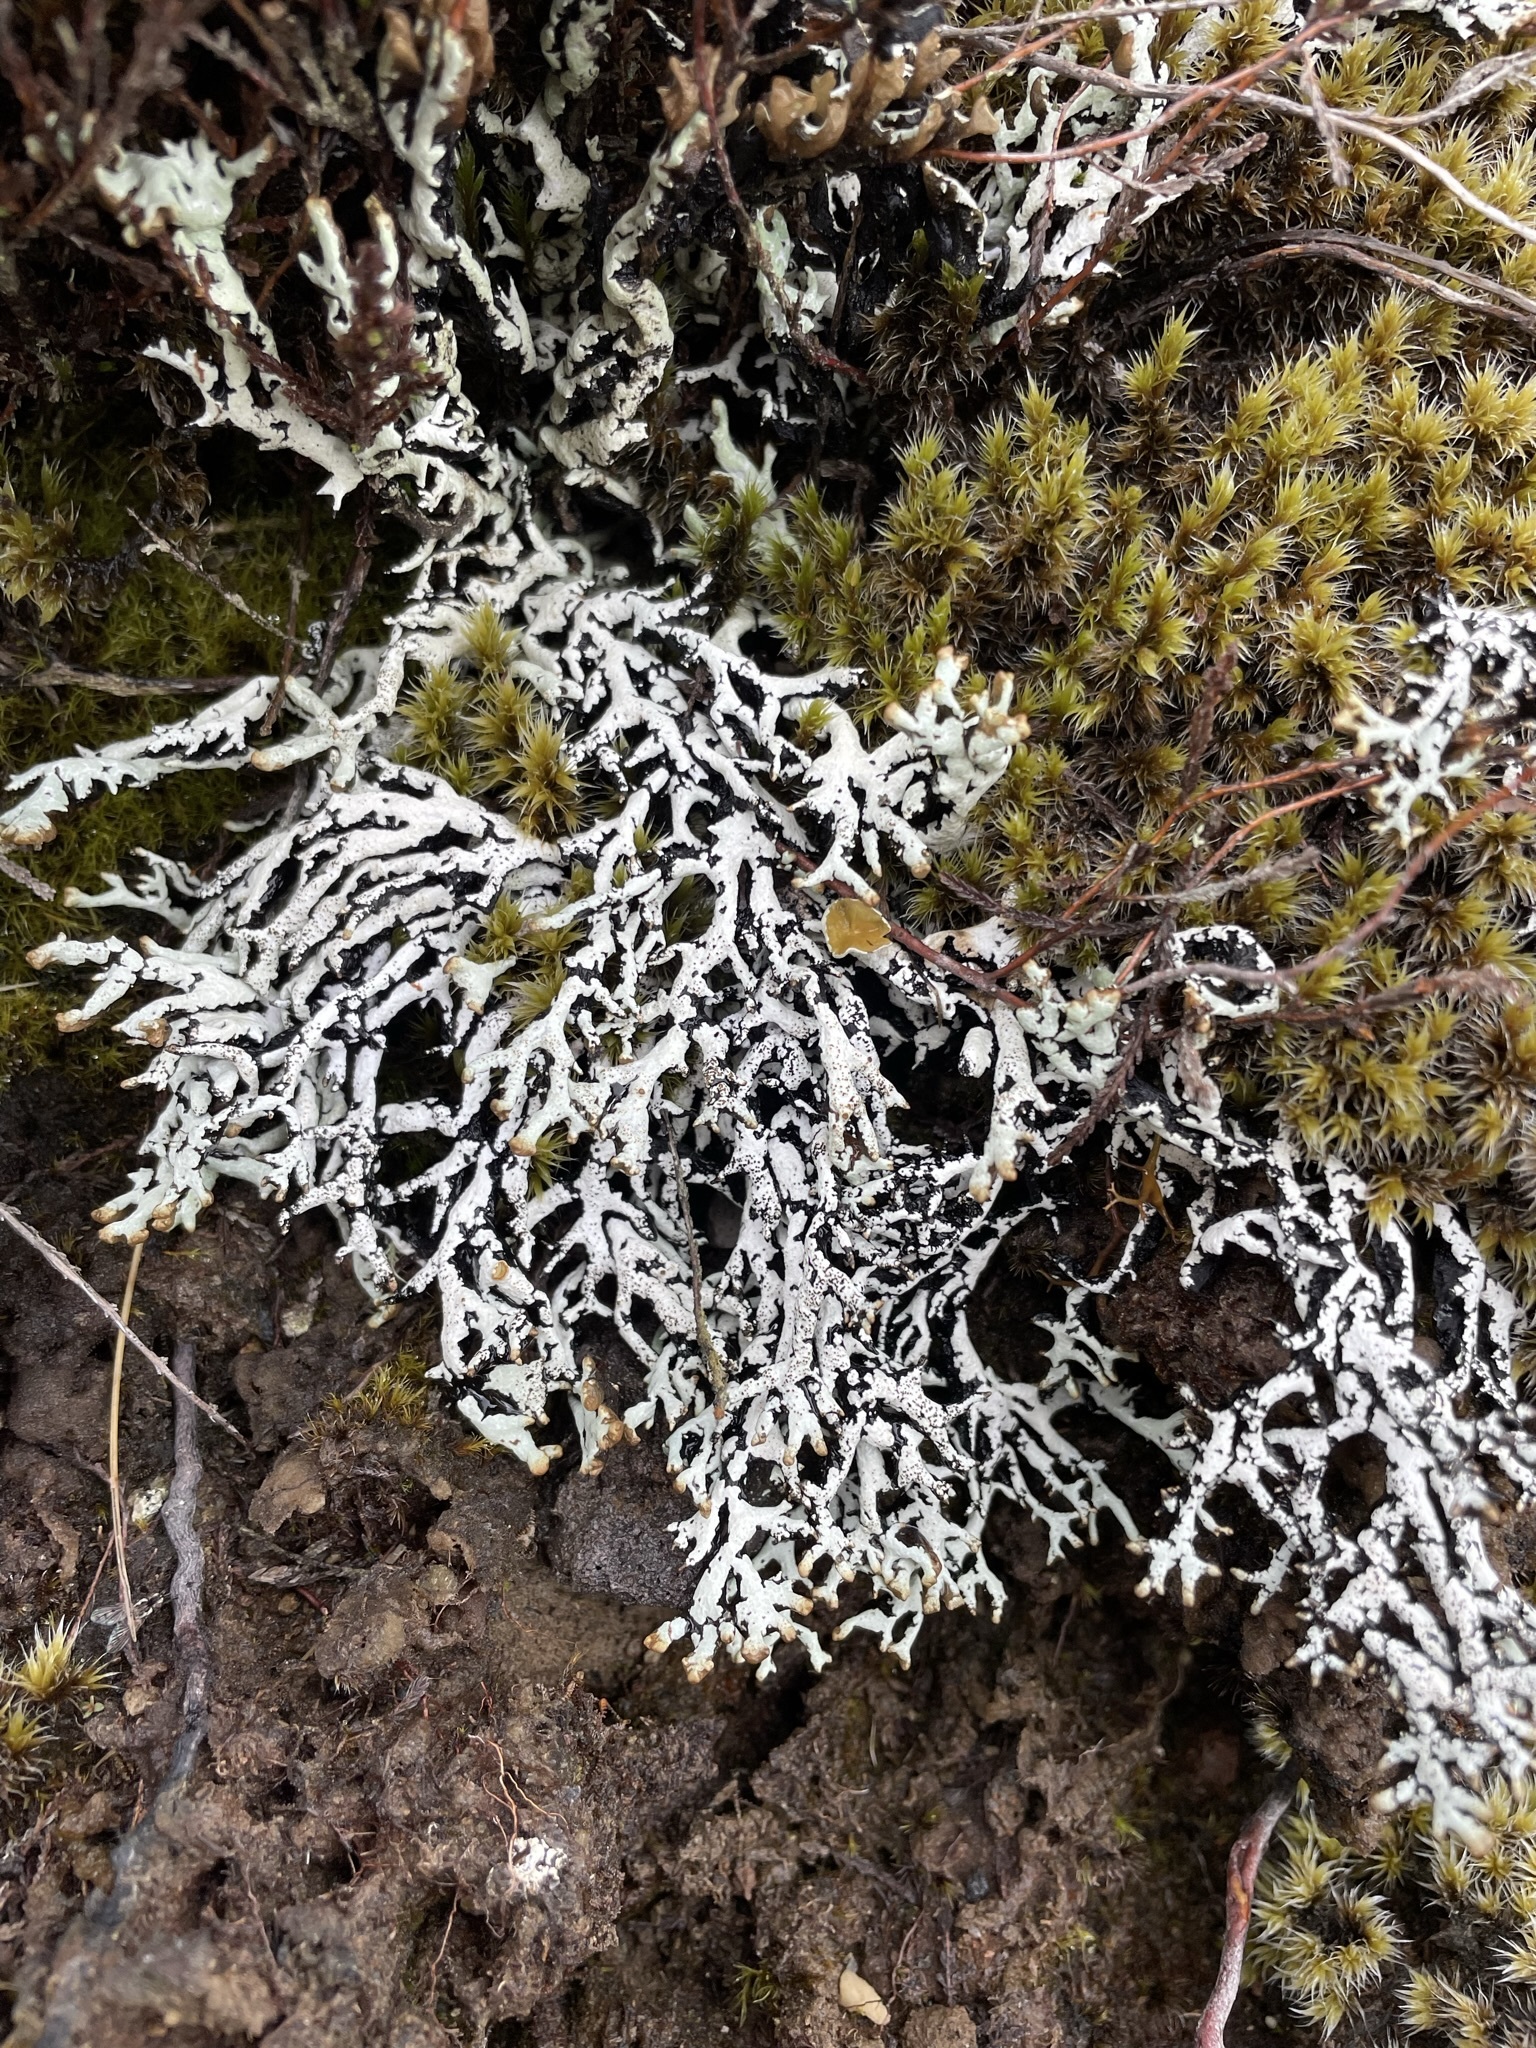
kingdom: Fungi
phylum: Ascomycota
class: Lecanoromycetes
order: Lecanorales
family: Parmeliaceae
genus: Hypogymnia
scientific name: Hypogymnia lugubris
